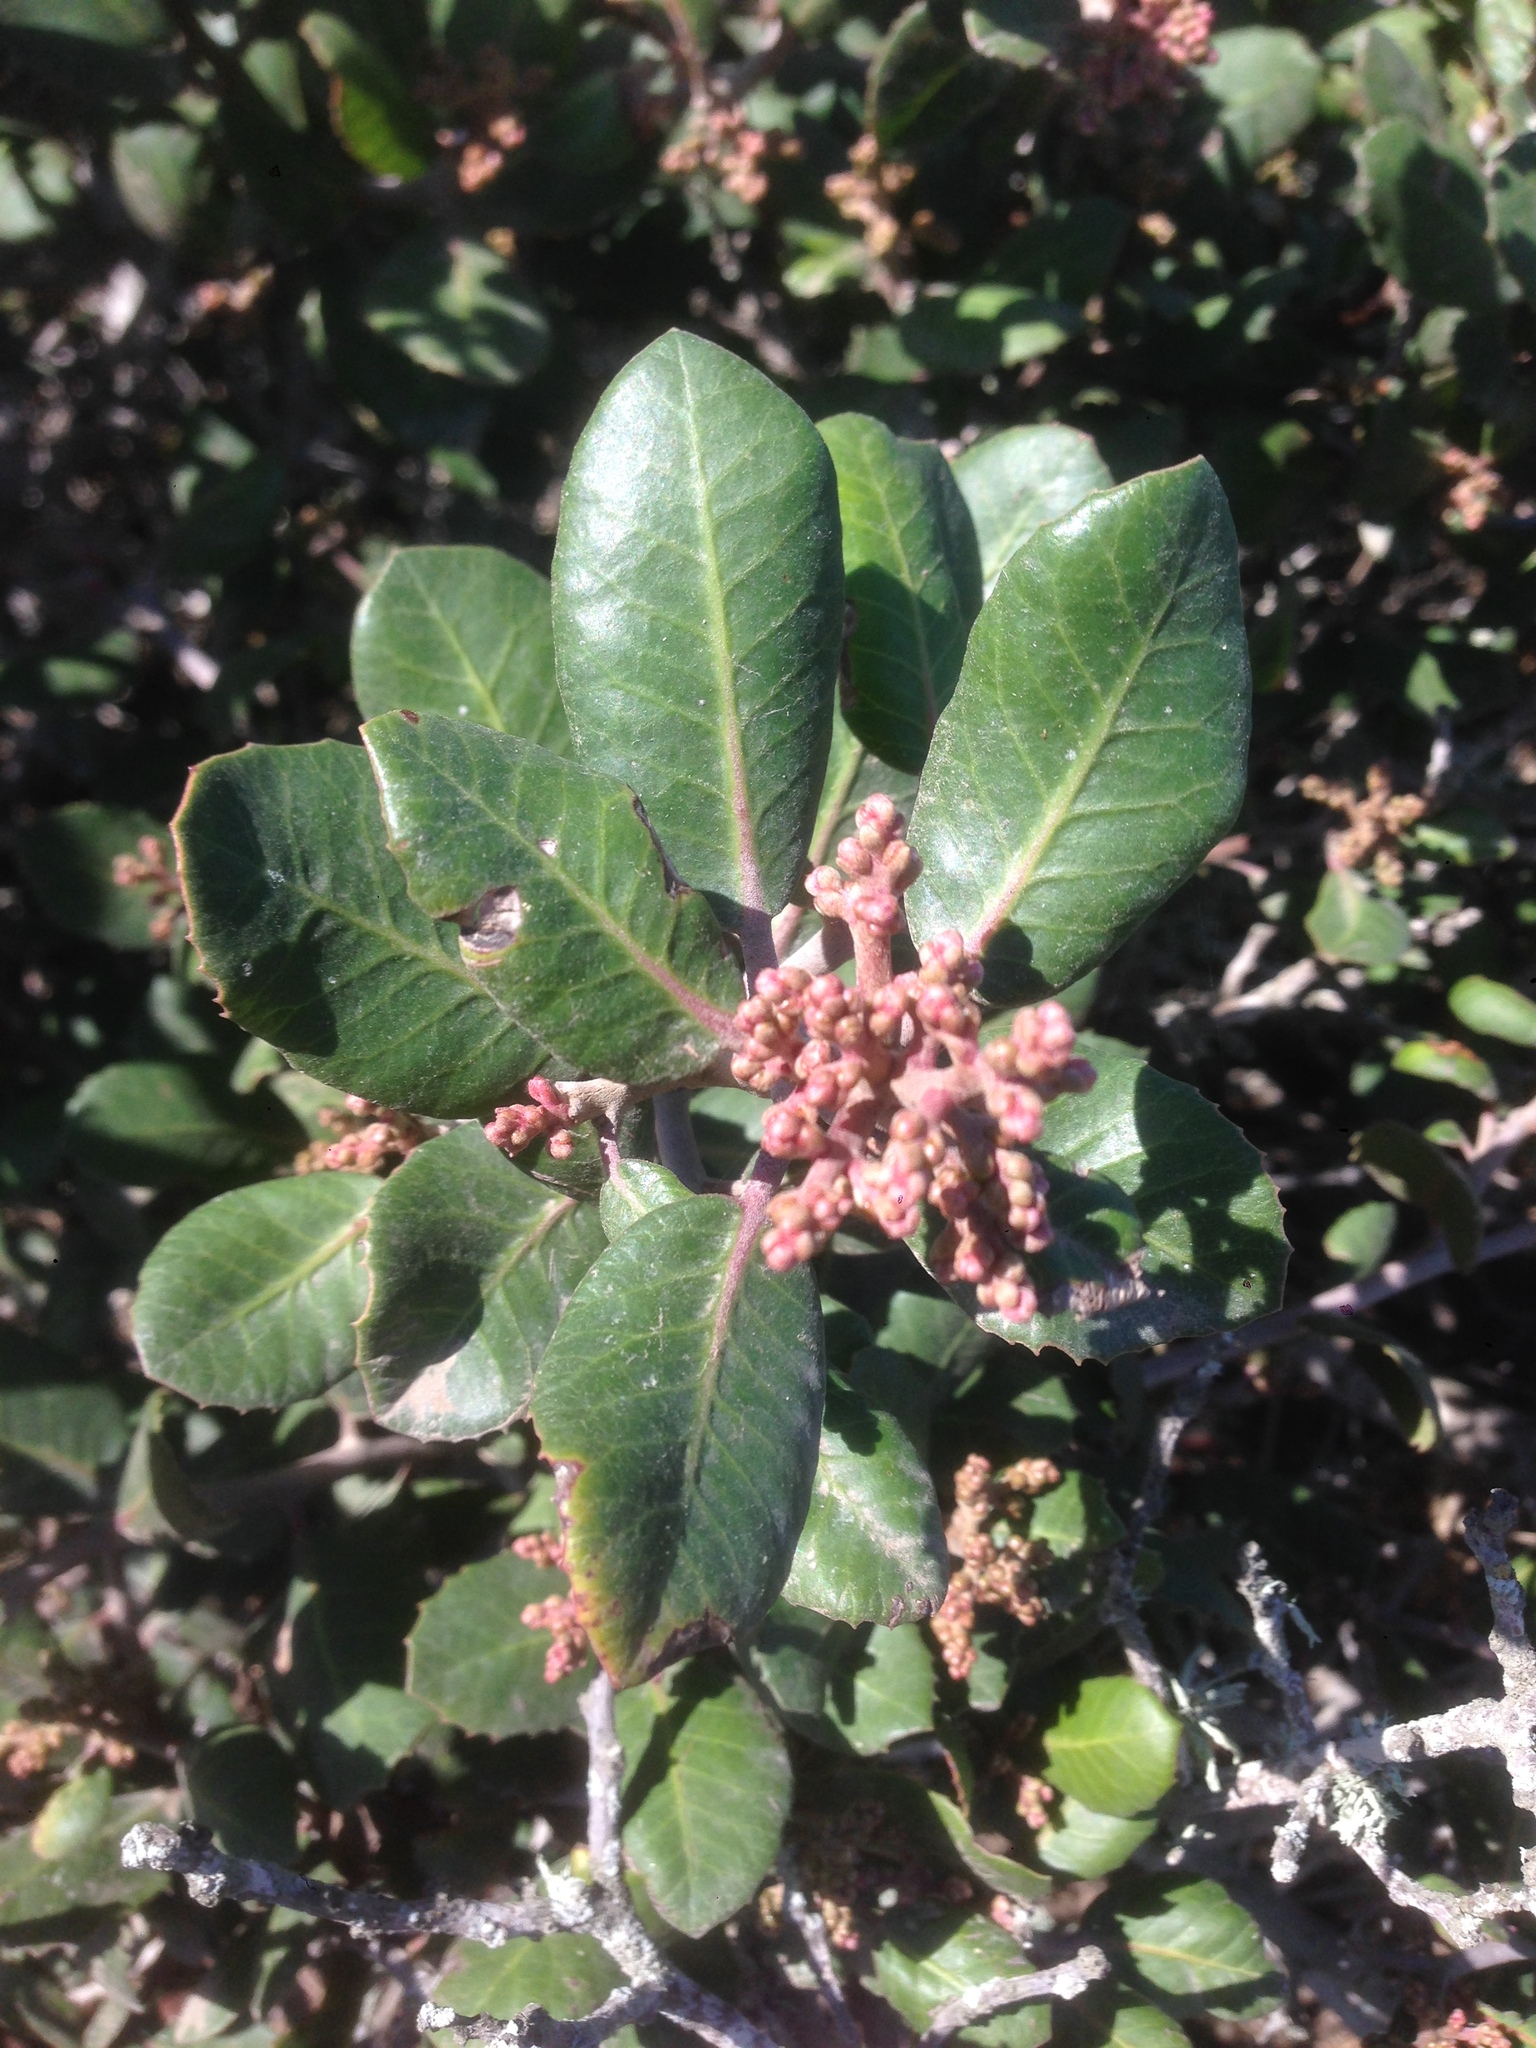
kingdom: Plantae
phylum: Tracheophyta
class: Magnoliopsida
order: Sapindales
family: Anacardiaceae
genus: Rhus
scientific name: Rhus integrifolia
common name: Lemonade sumac
